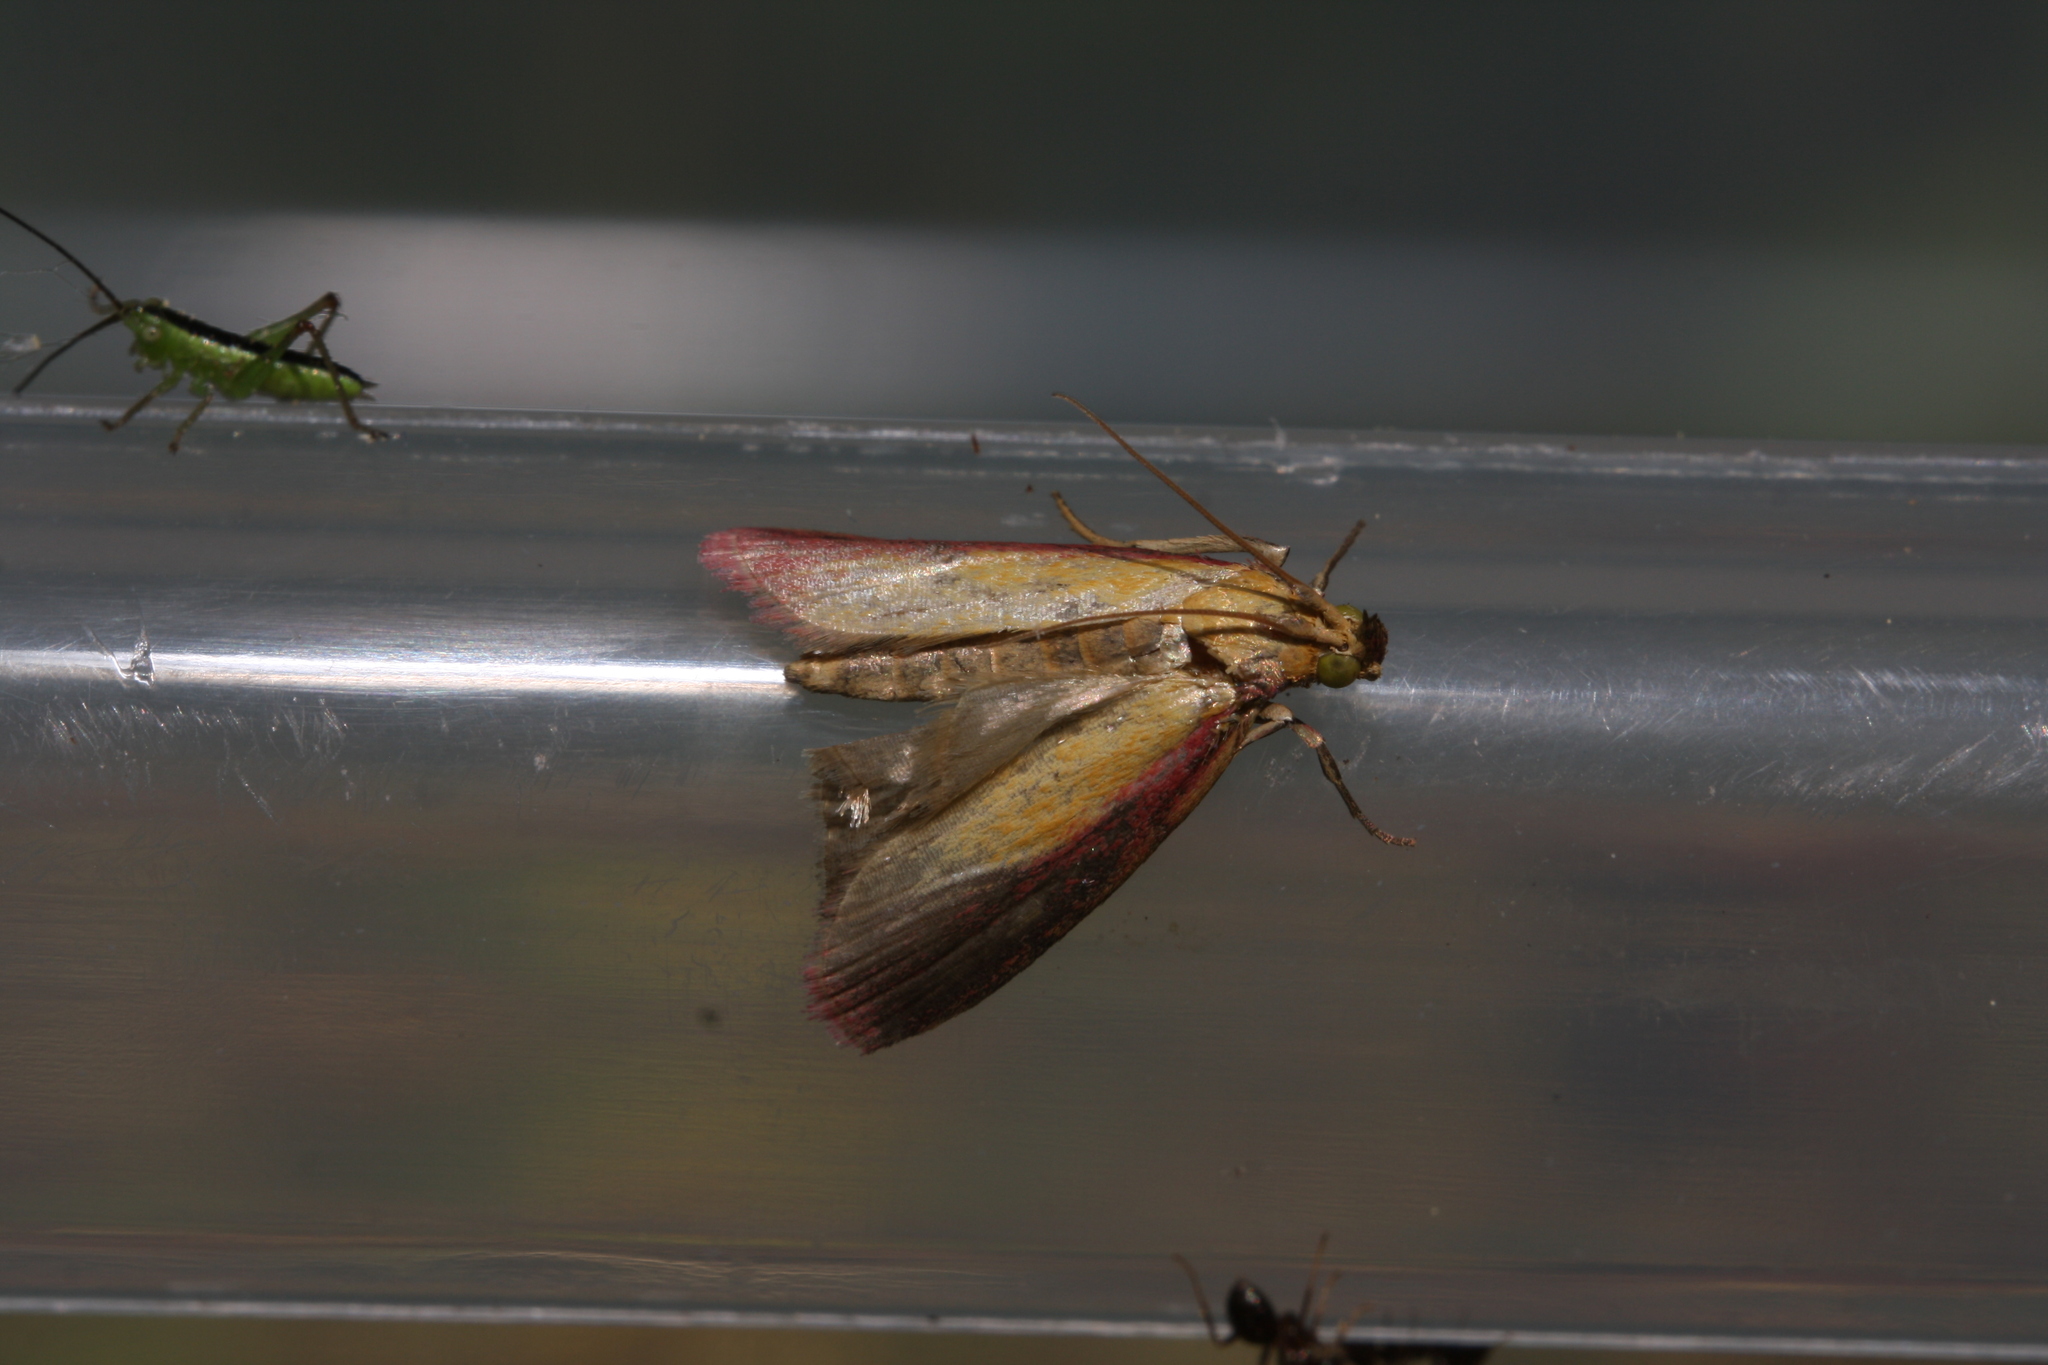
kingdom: Animalia
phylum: Arthropoda
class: Insecta
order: Lepidoptera
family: Pyralidae
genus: Oncocera
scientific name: Oncocera semirubella
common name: Rosy-striped knot-horn
